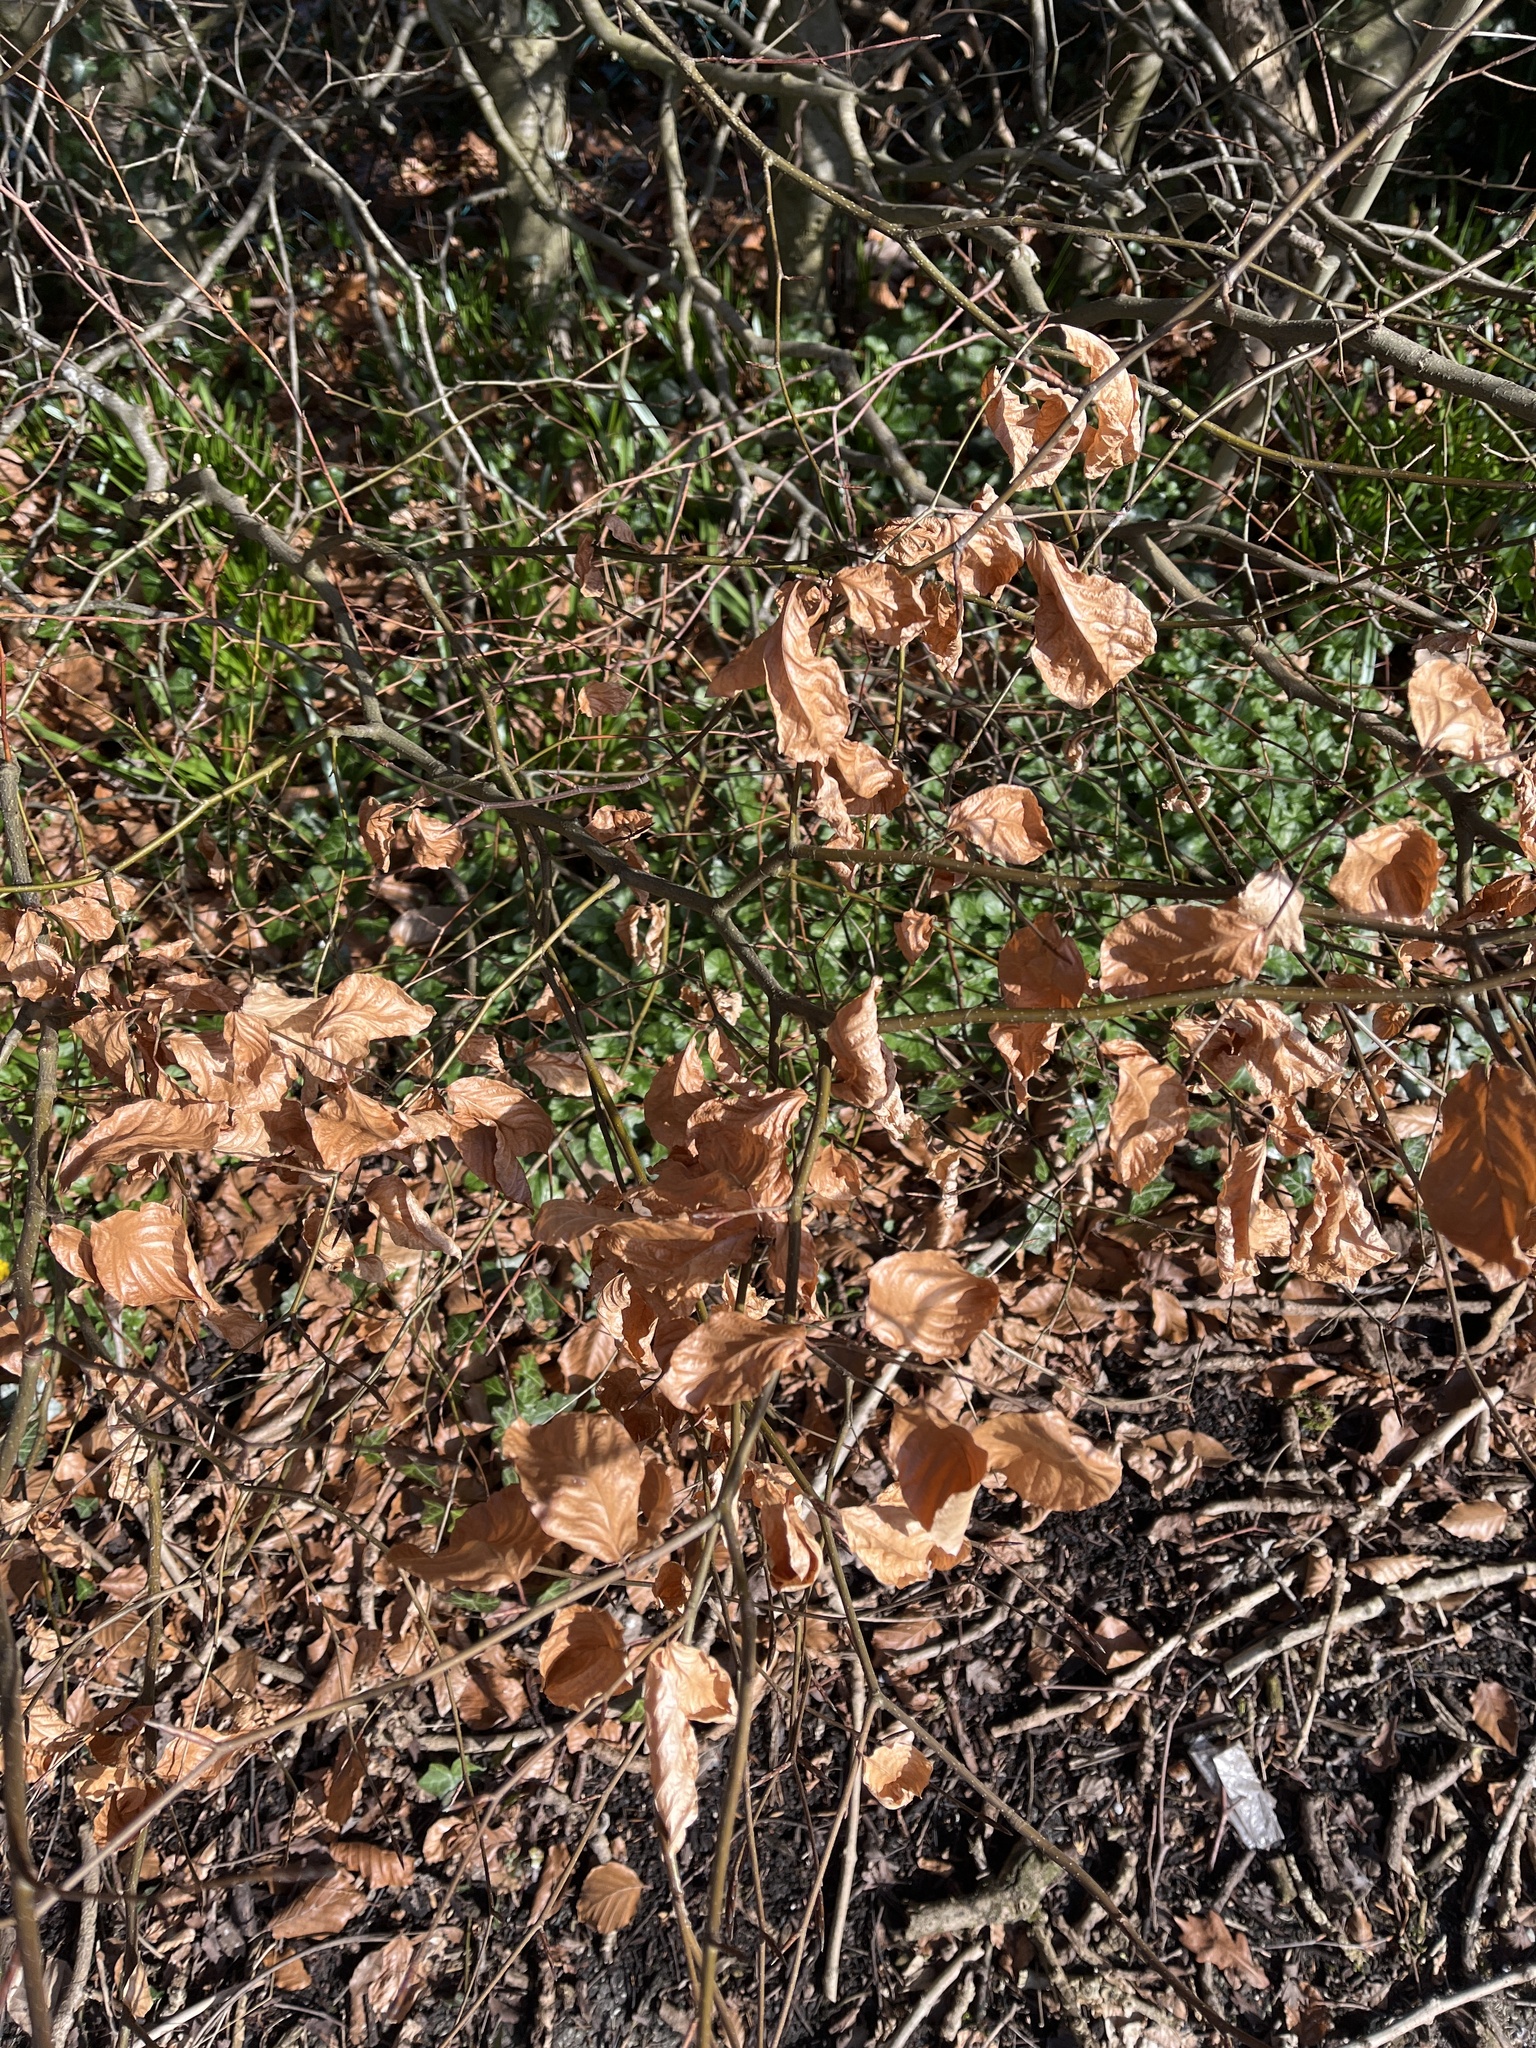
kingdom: Plantae
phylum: Tracheophyta
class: Magnoliopsida
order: Fagales
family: Fagaceae
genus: Fagus
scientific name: Fagus sylvatica
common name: Beech
